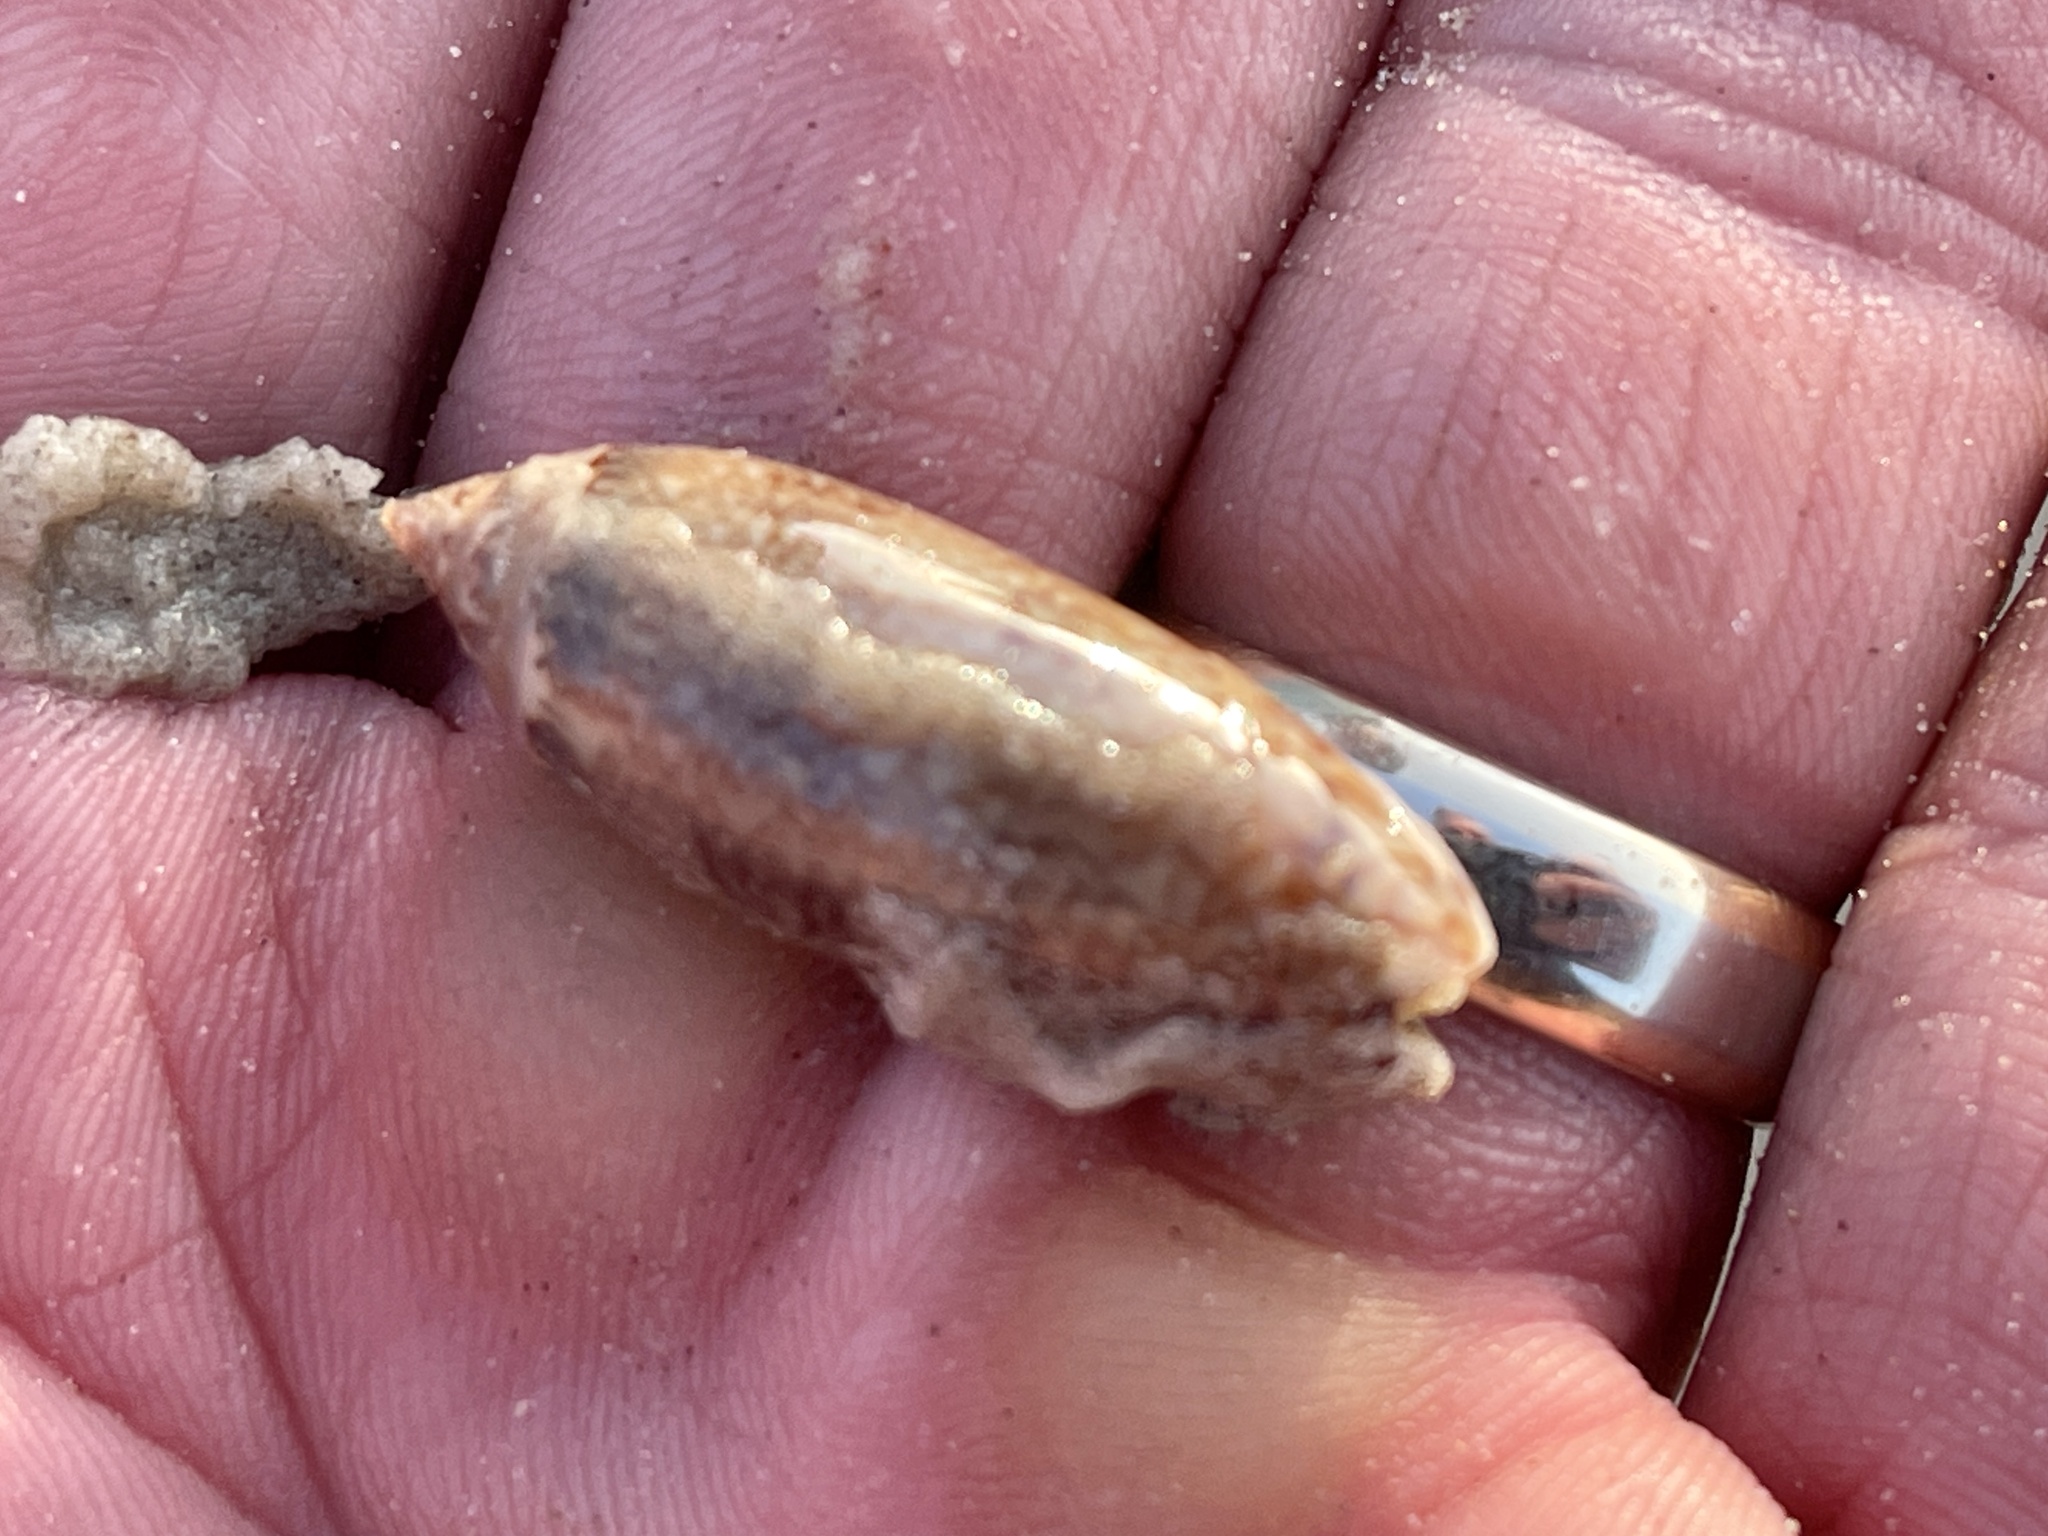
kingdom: Animalia
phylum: Mollusca
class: Gastropoda
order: Neogastropoda
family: Olividae
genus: Oliva
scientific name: Oliva sayana
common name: Lettered olive
